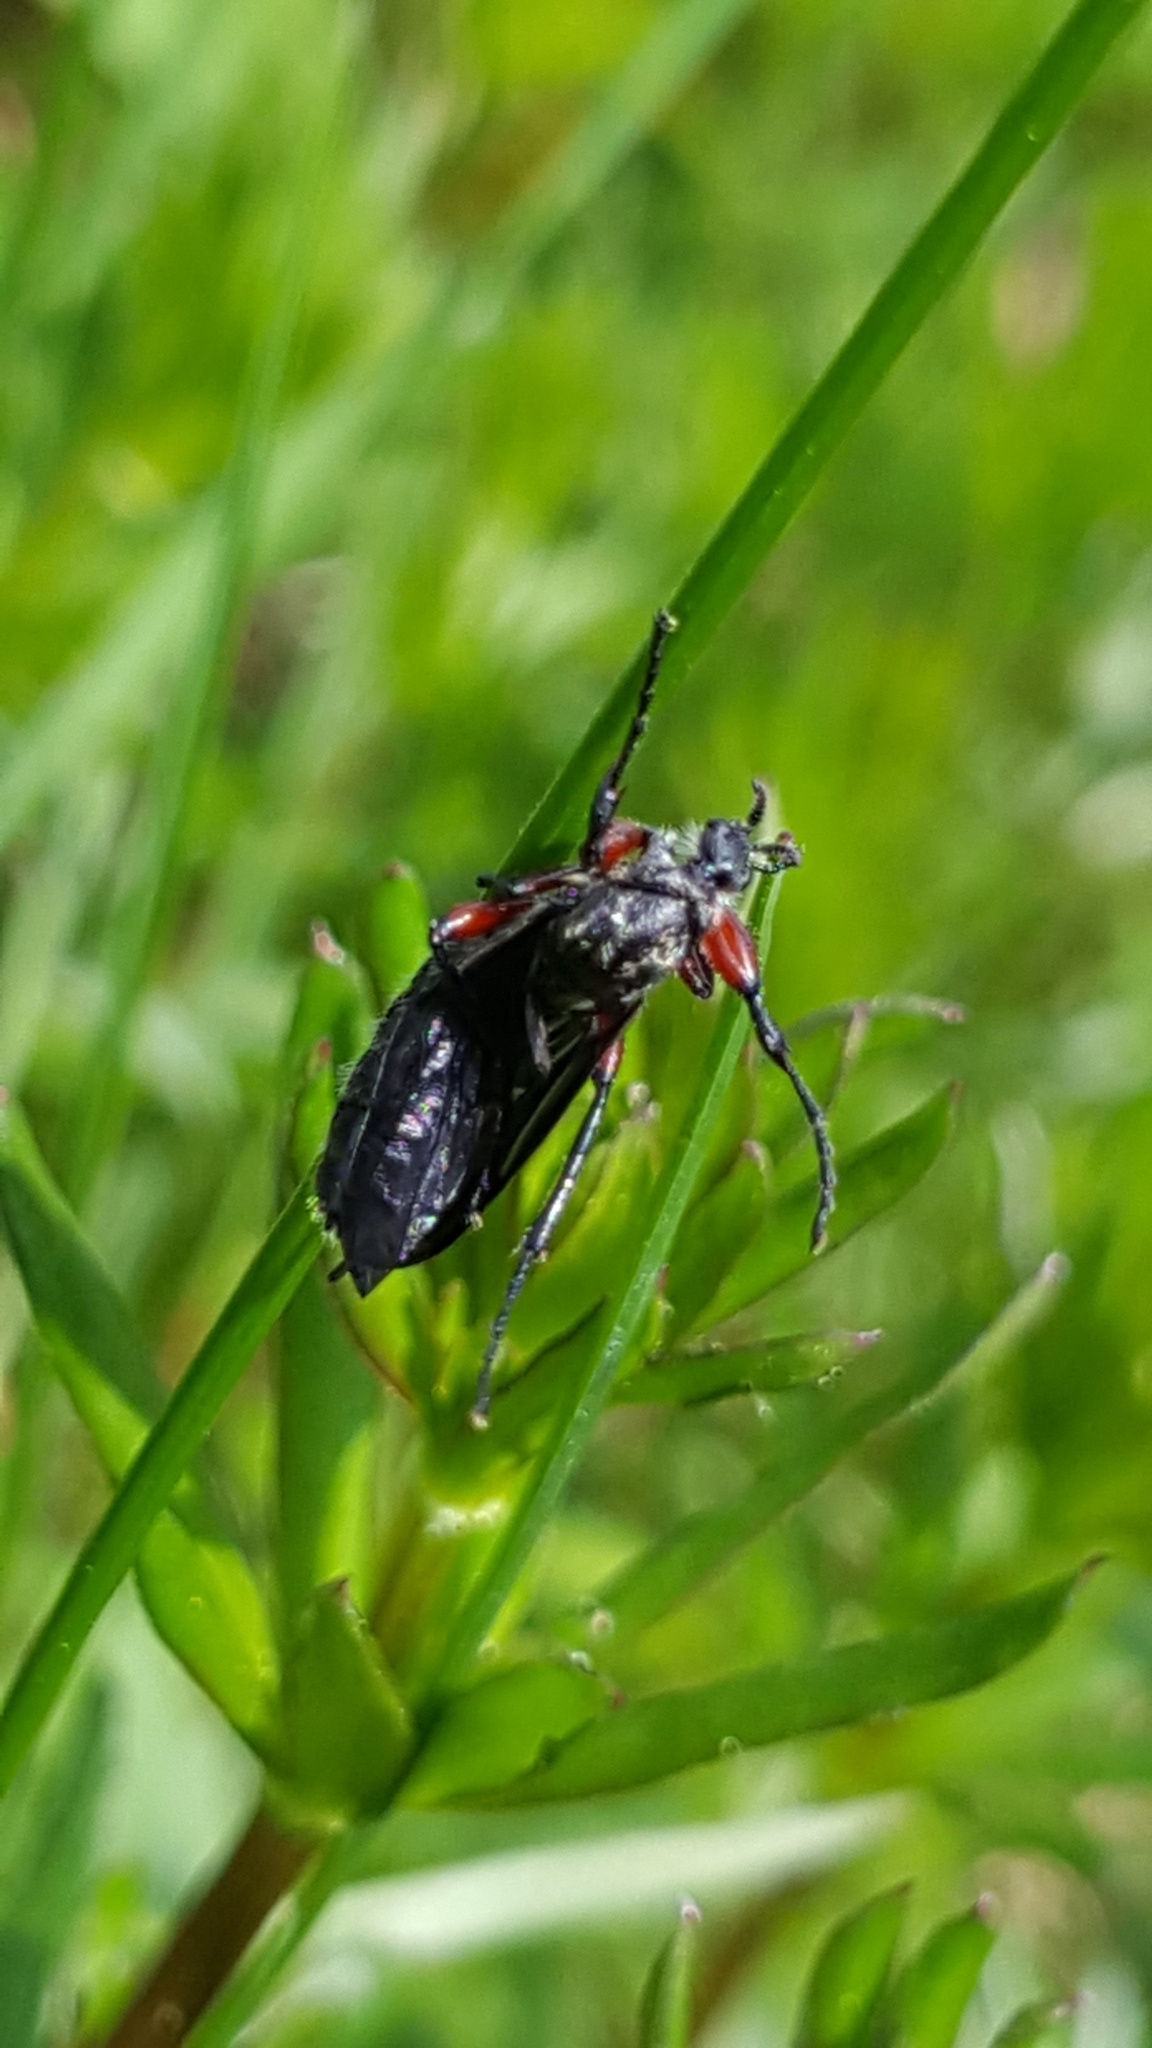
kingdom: Animalia
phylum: Arthropoda
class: Insecta
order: Diptera
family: Bibionidae
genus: Bibio
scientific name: Bibio femoratus
